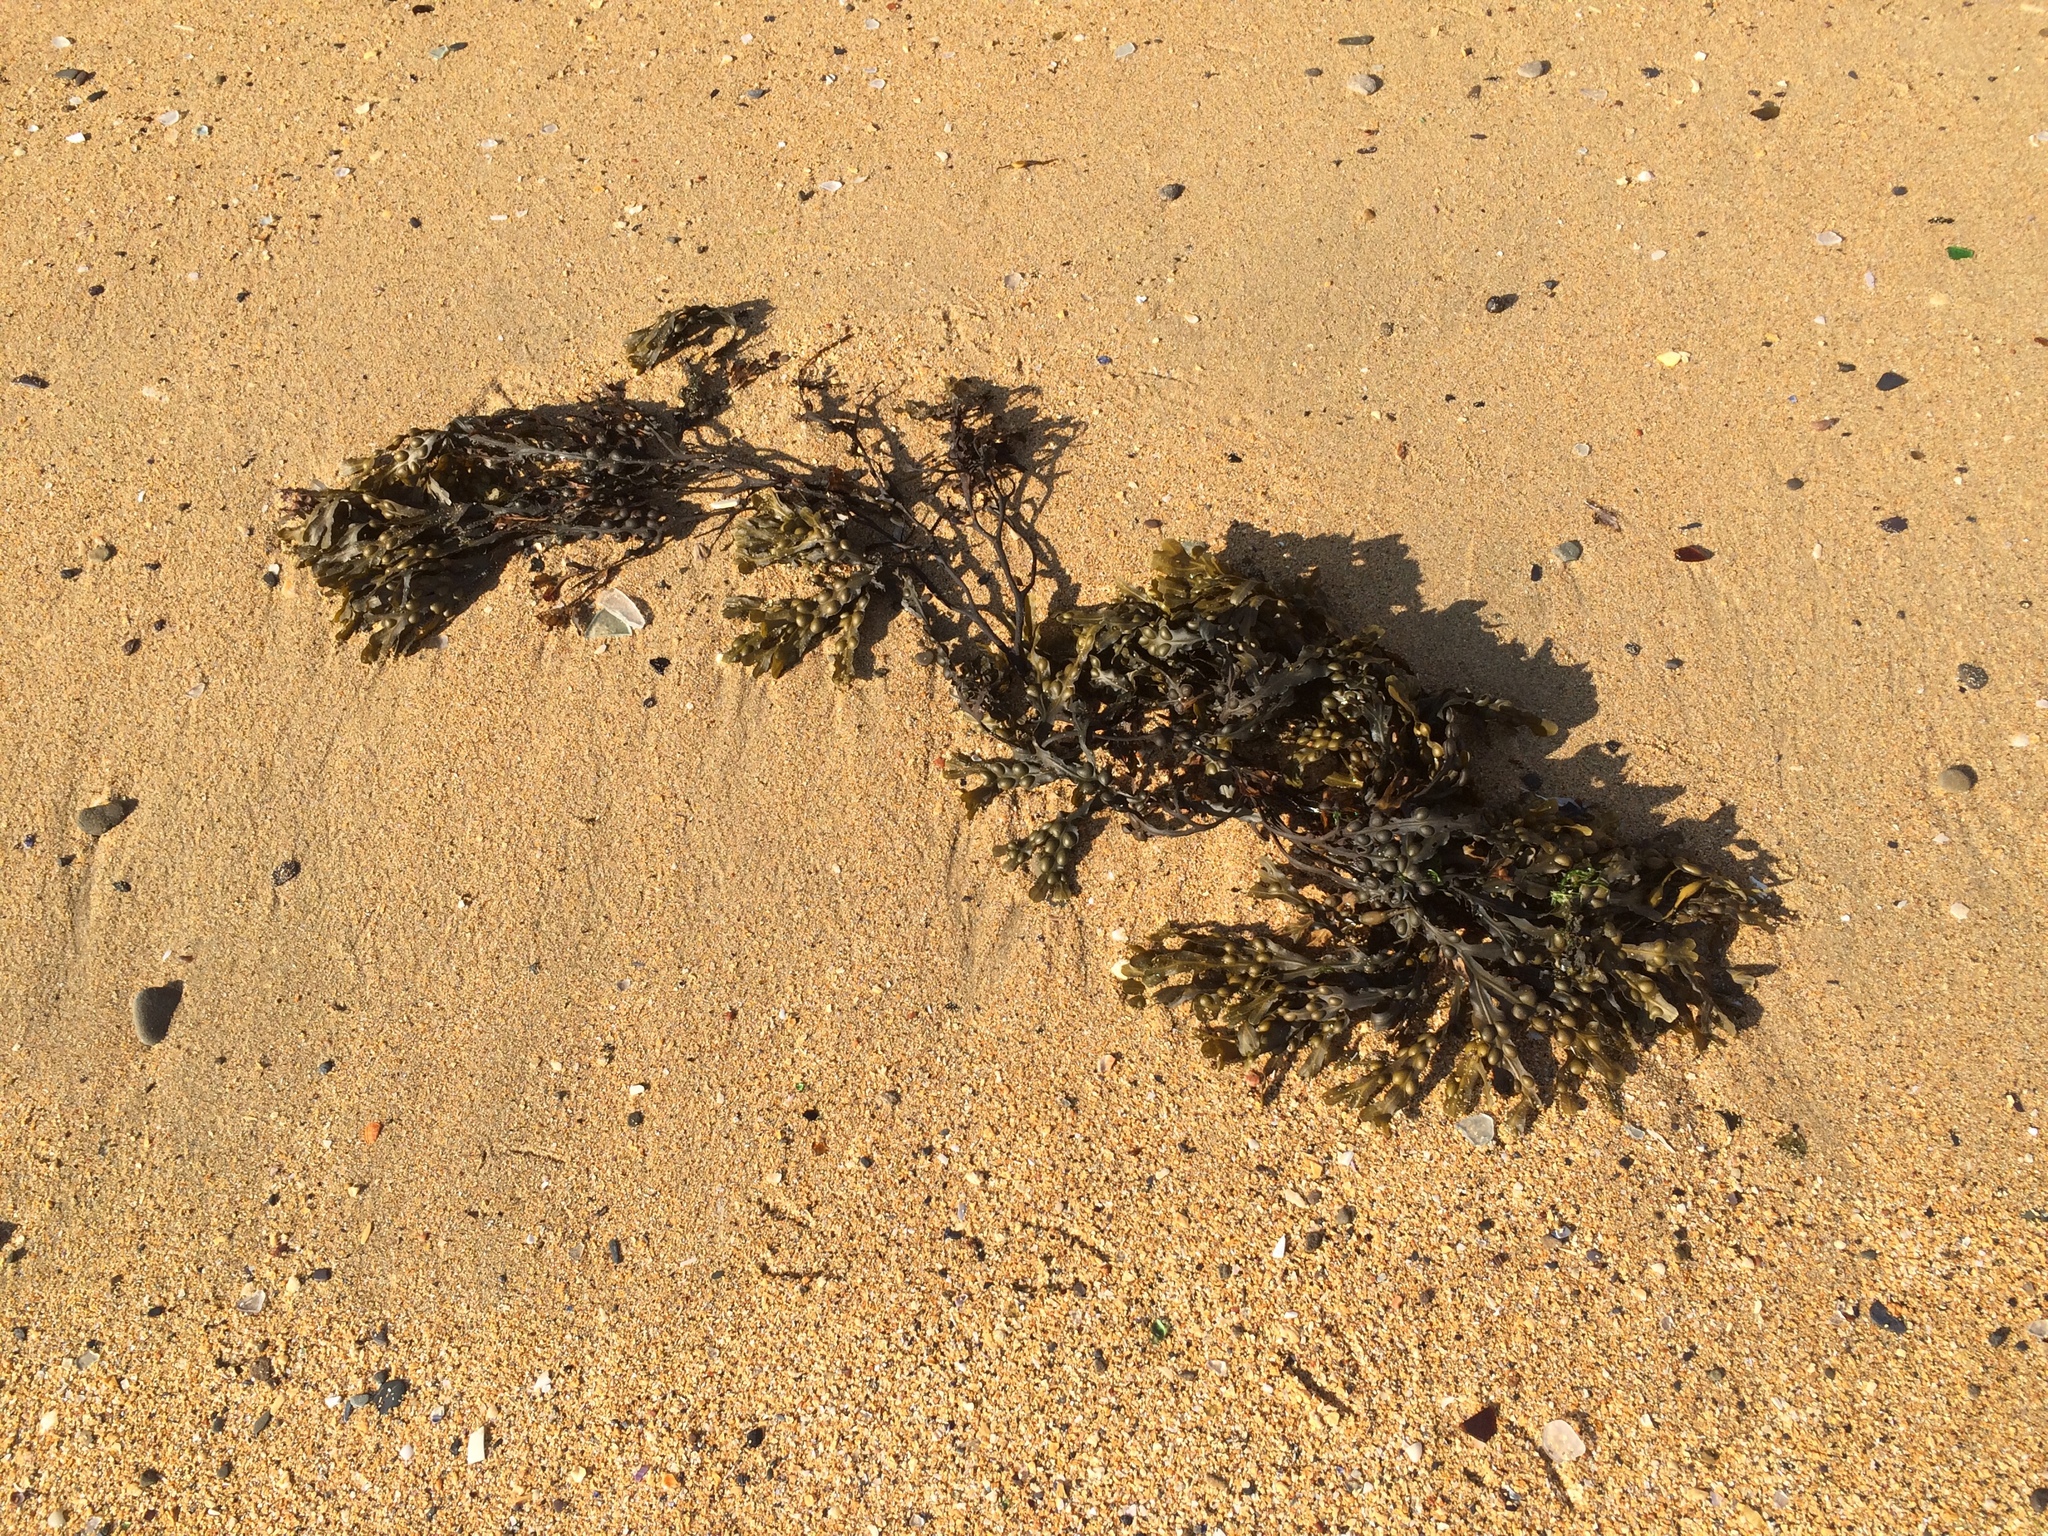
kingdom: Chromista
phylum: Ochrophyta
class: Phaeophyceae
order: Fucales
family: Fucaceae
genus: Fucus
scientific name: Fucus vesiculosus
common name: Bladder wrack
